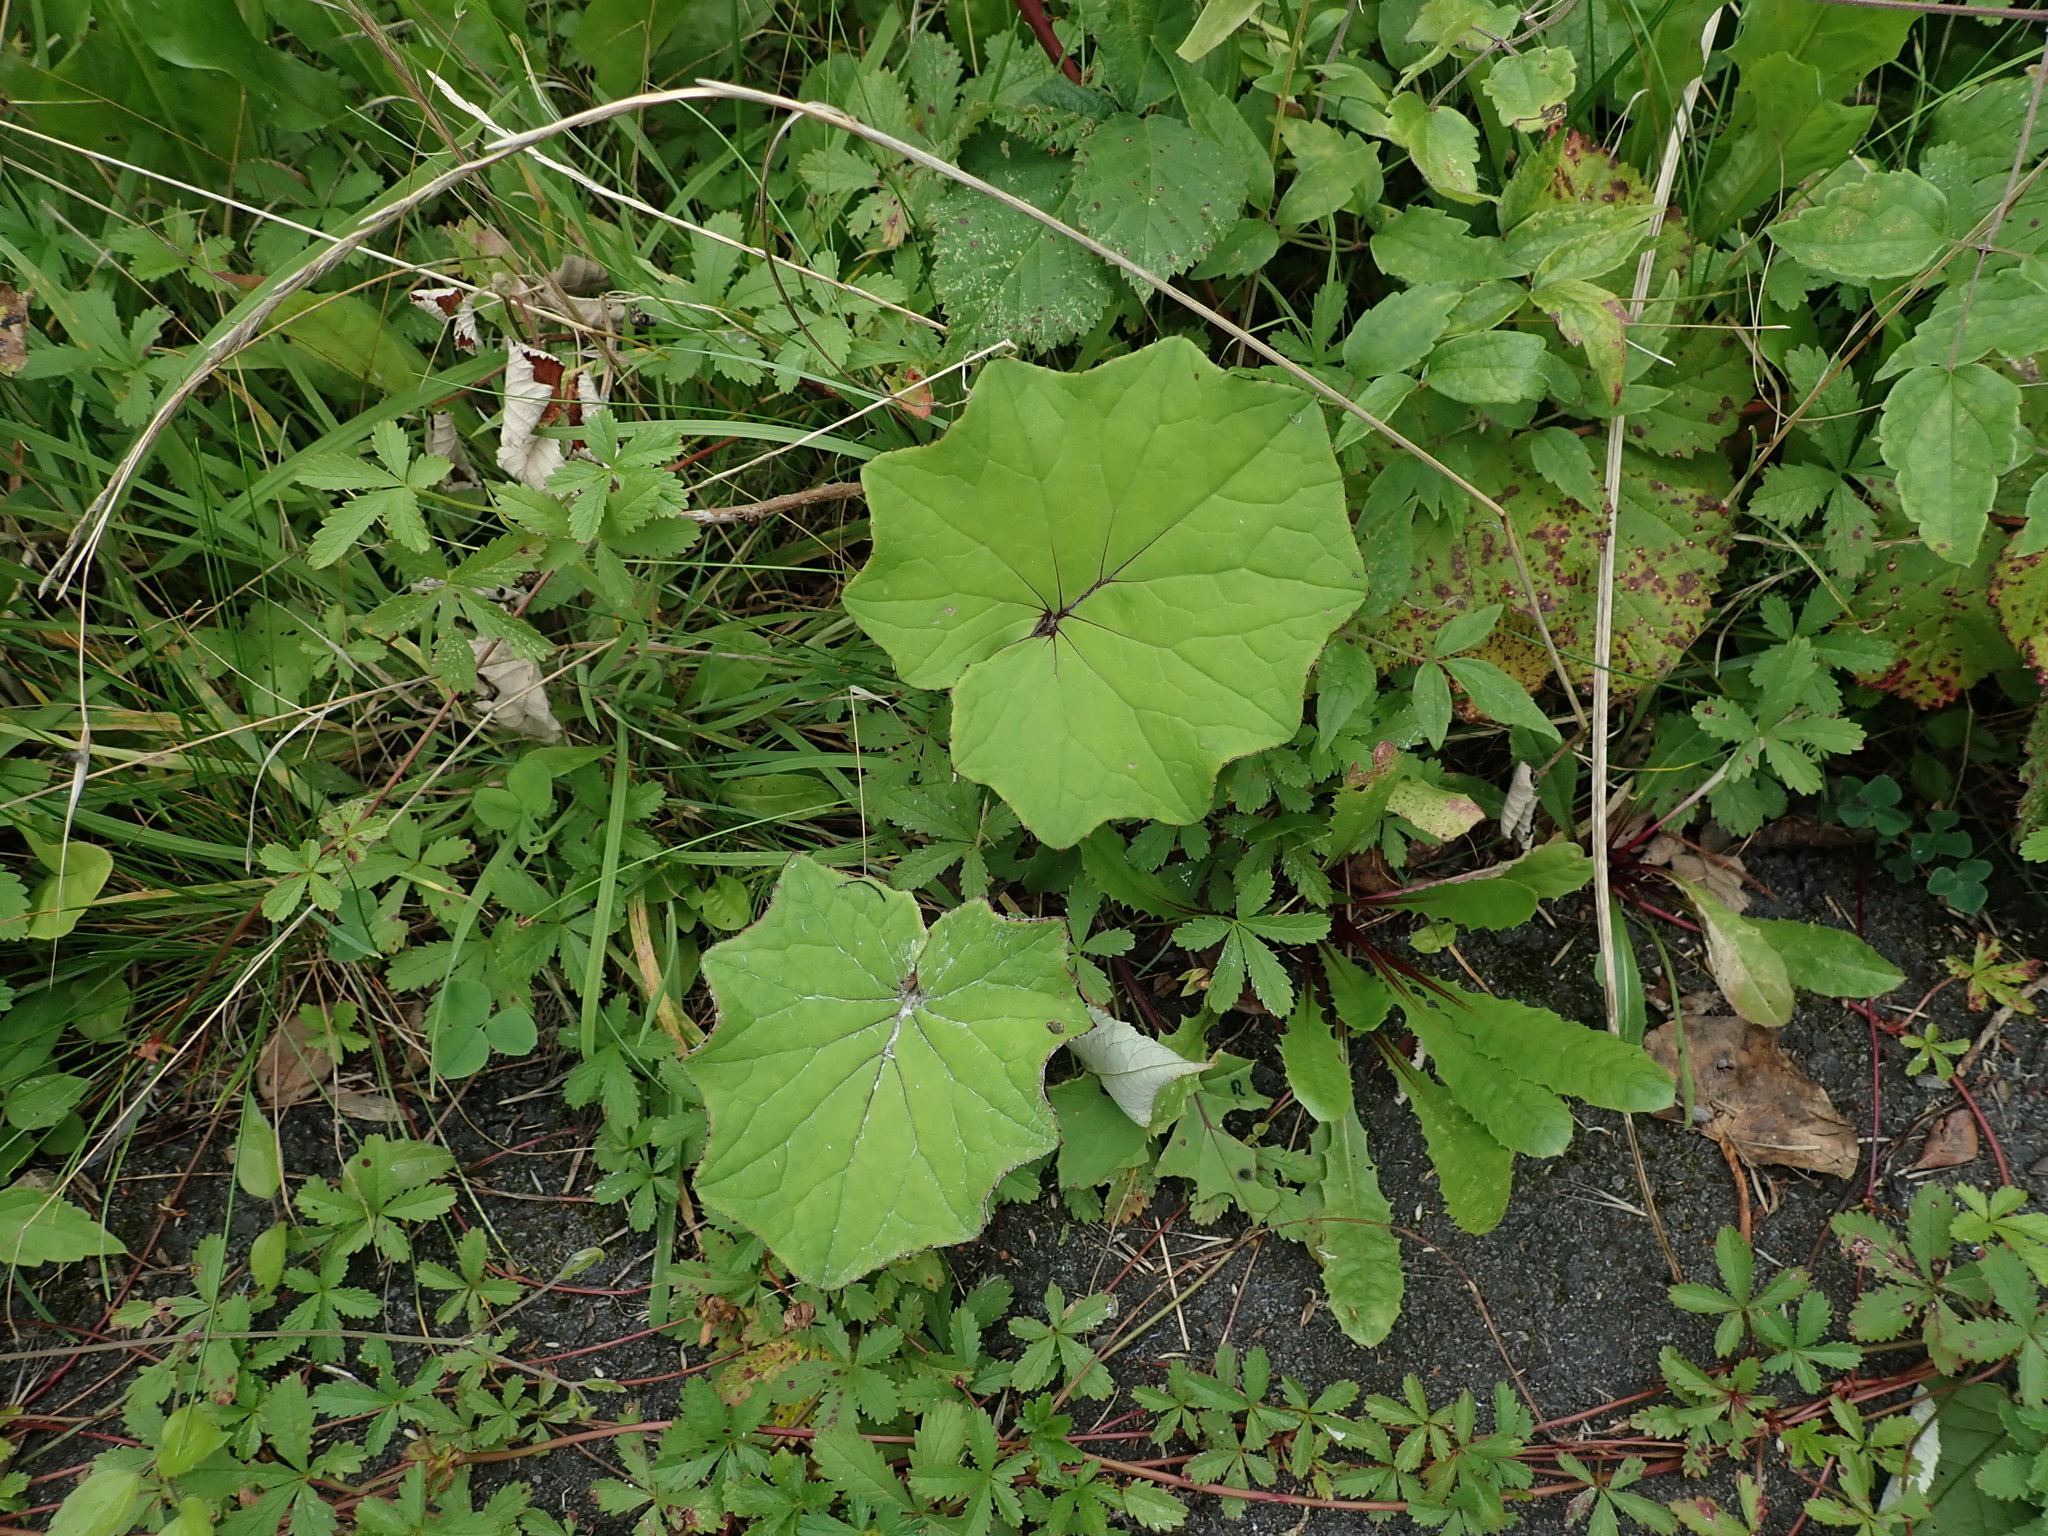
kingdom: Plantae
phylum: Tracheophyta
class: Magnoliopsida
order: Asterales
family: Asteraceae
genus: Tussilago
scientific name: Tussilago farfara
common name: Coltsfoot
